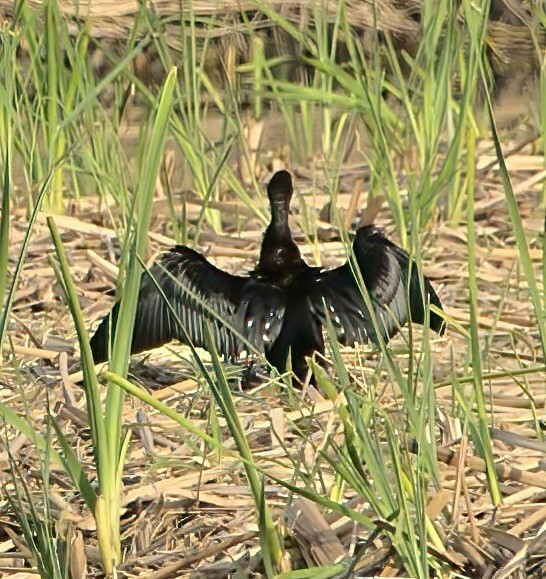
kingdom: Animalia
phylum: Chordata
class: Aves
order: Suliformes
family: Phalacrocoracidae
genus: Microcarbo
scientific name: Microcarbo niger
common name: Little cormorant
